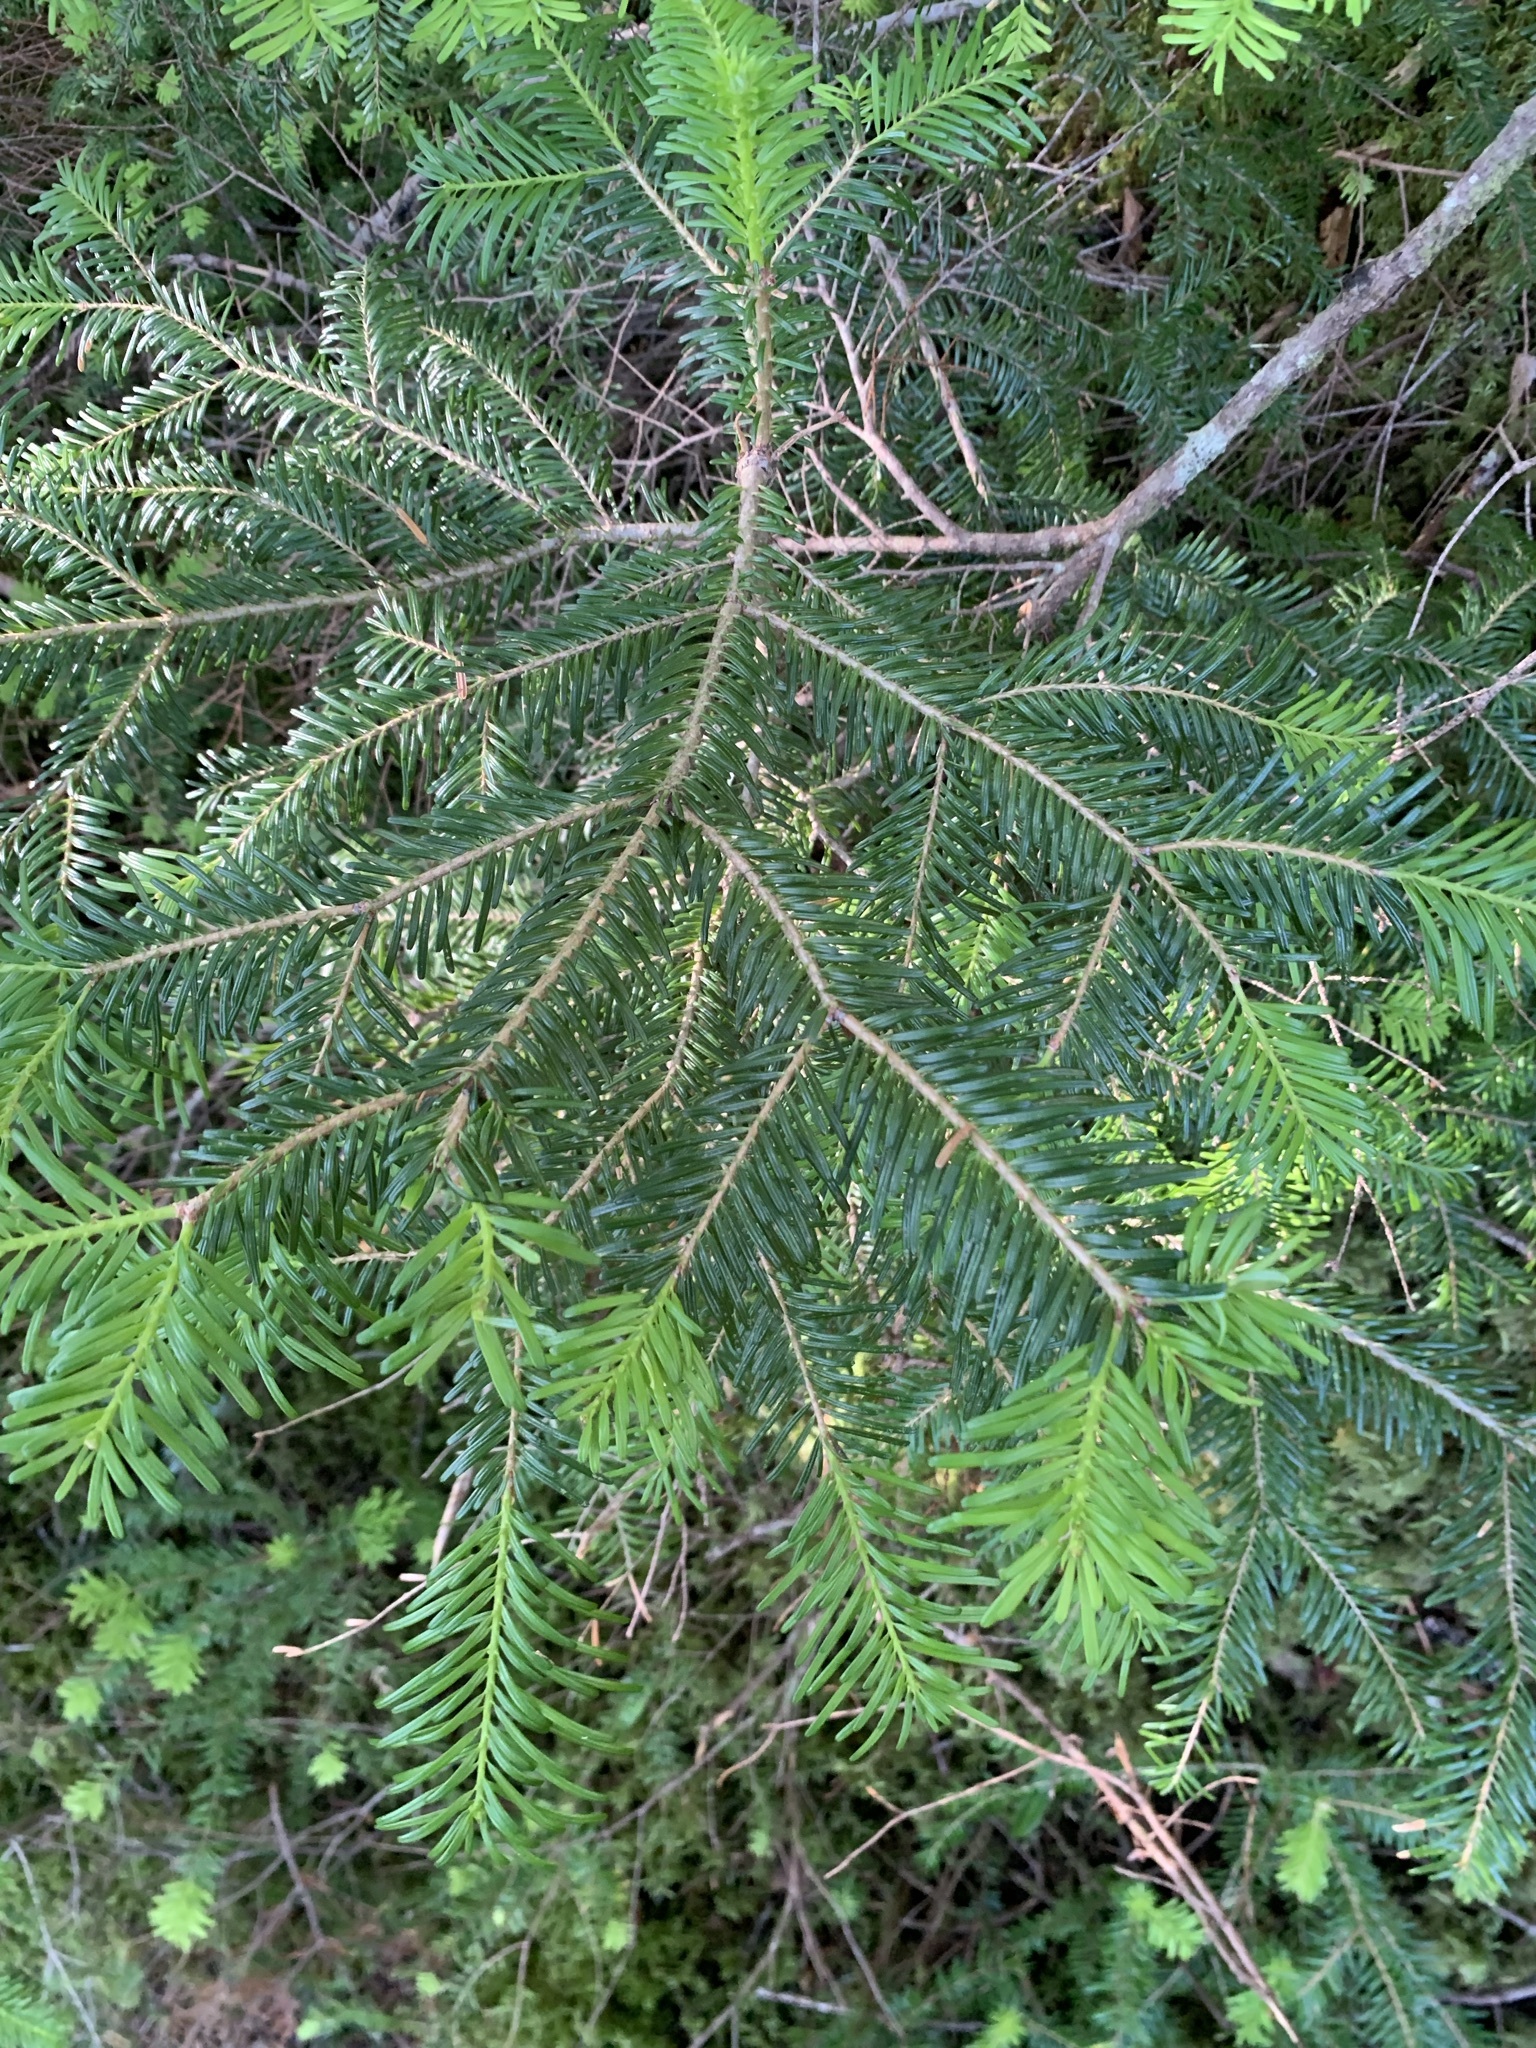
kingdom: Plantae
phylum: Tracheophyta
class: Pinopsida
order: Pinales
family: Pinaceae
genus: Abies
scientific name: Abies veitchii
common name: Veitch’s fir
